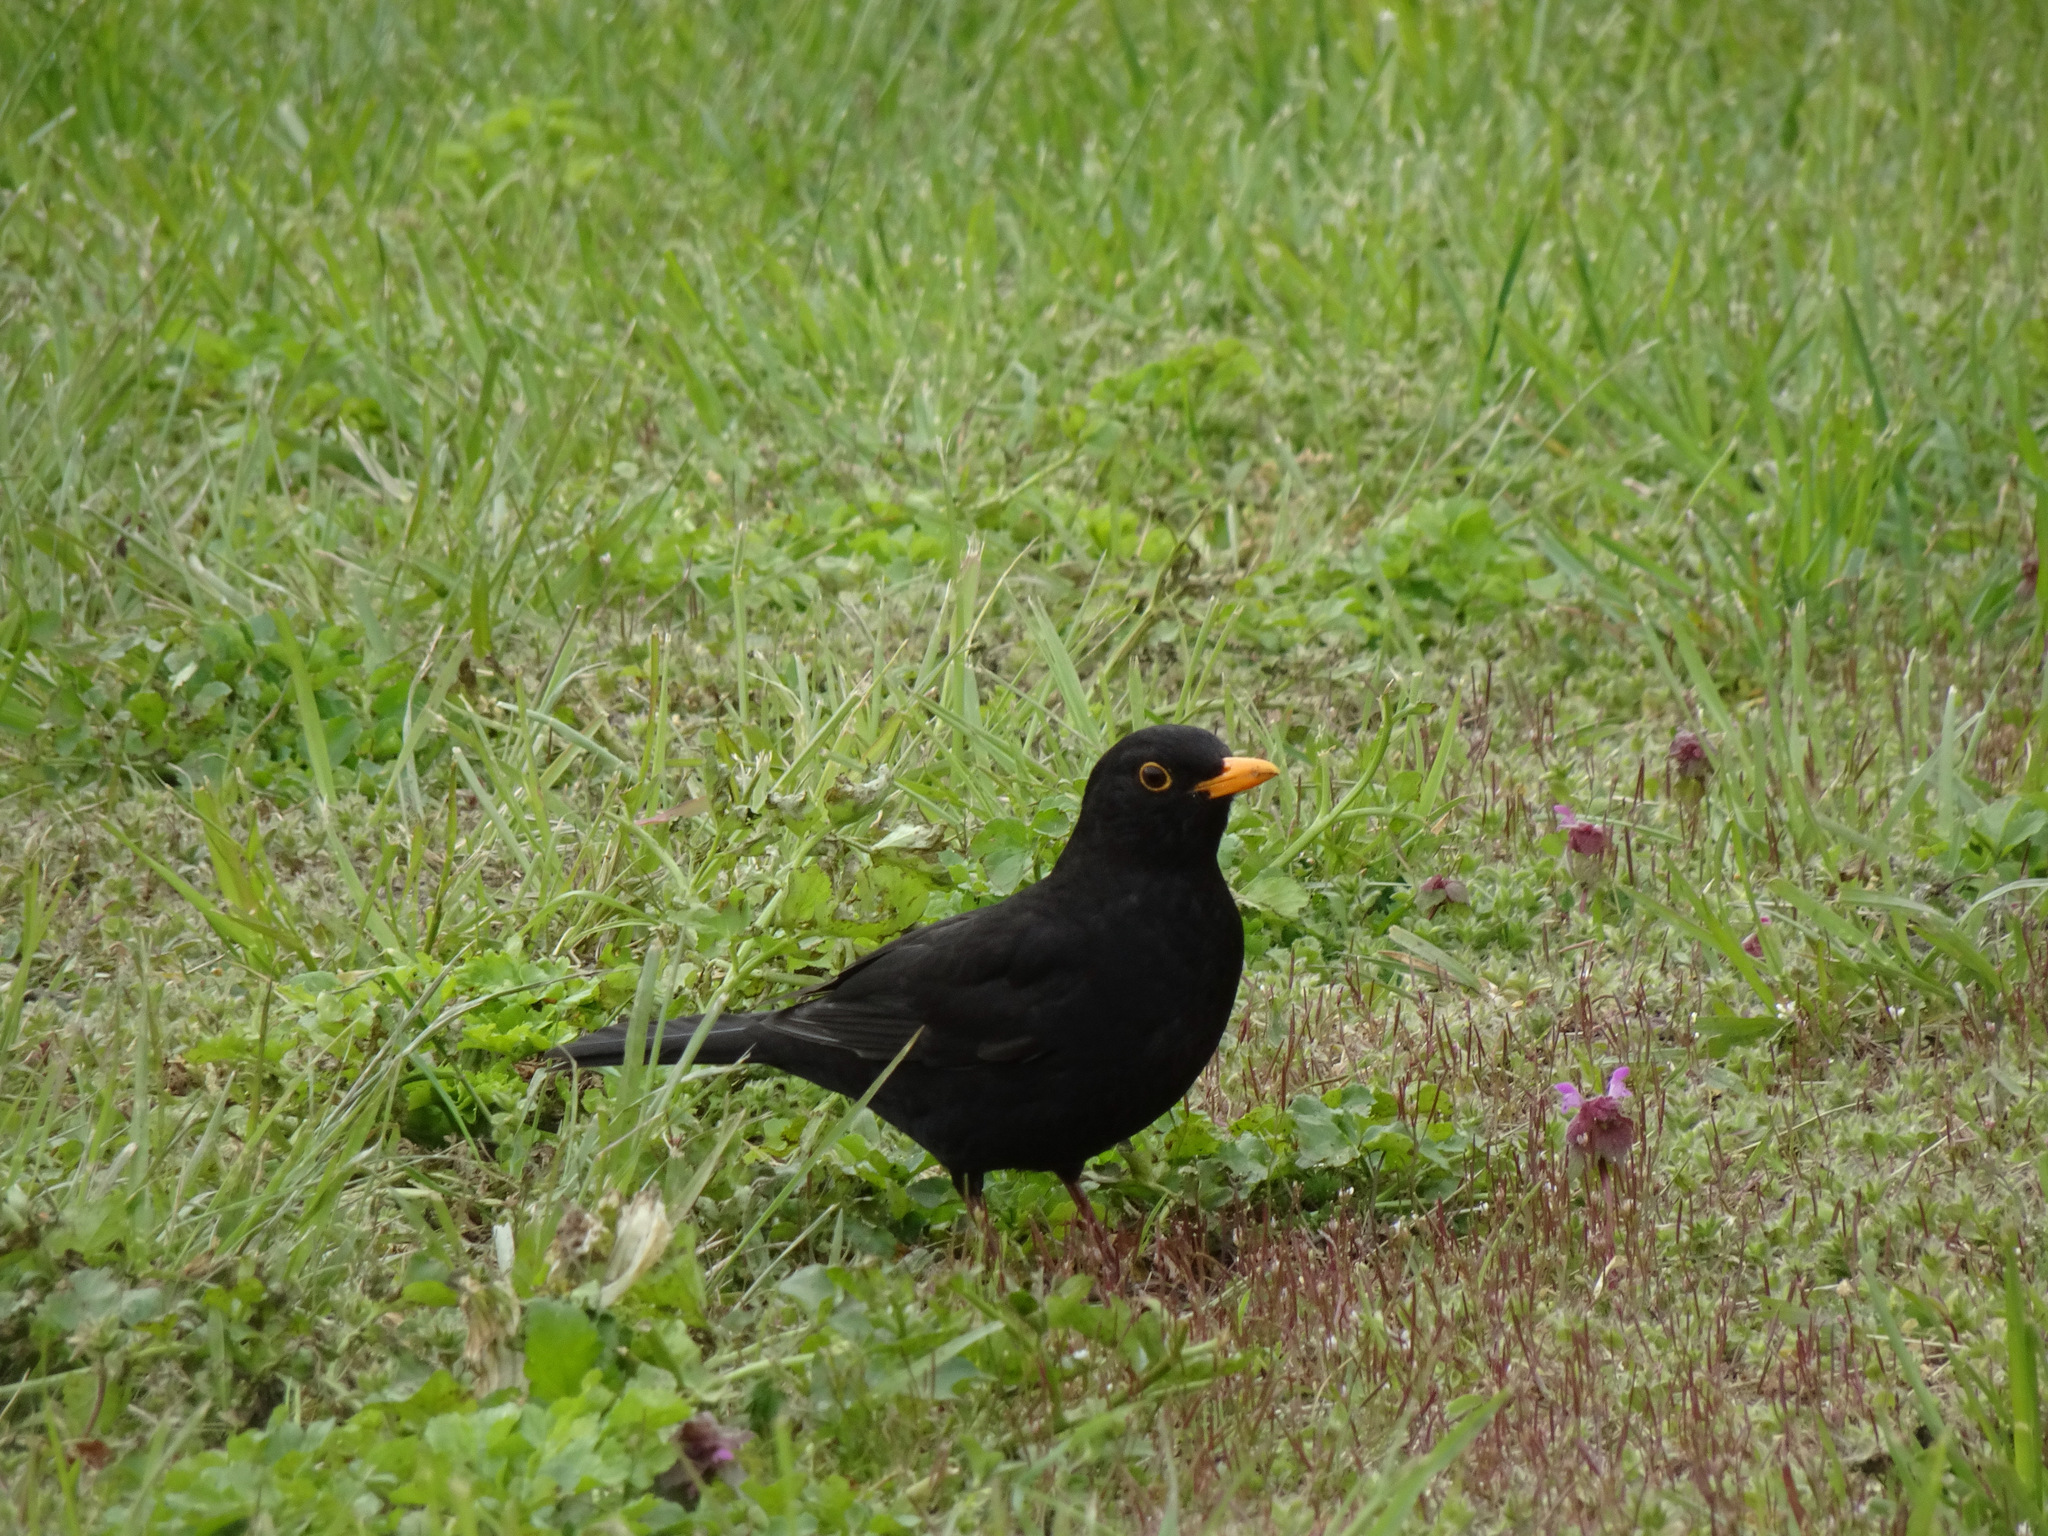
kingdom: Animalia
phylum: Chordata
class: Aves
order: Passeriformes
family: Turdidae
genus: Turdus
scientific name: Turdus merula
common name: Common blackbird
